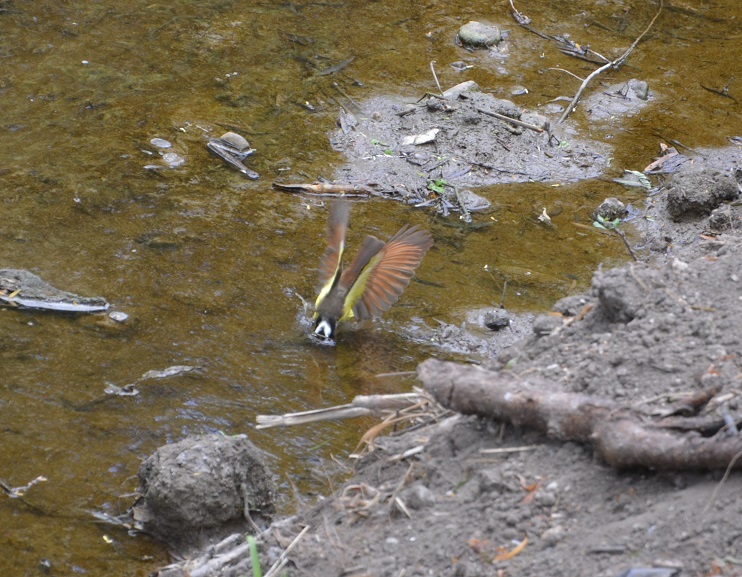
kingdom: Animalia
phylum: Chordata
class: Aves
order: Passeriformes
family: Tyrannidae
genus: Pitangus
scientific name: Pitangus sulphuratus
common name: Great kiskadee
